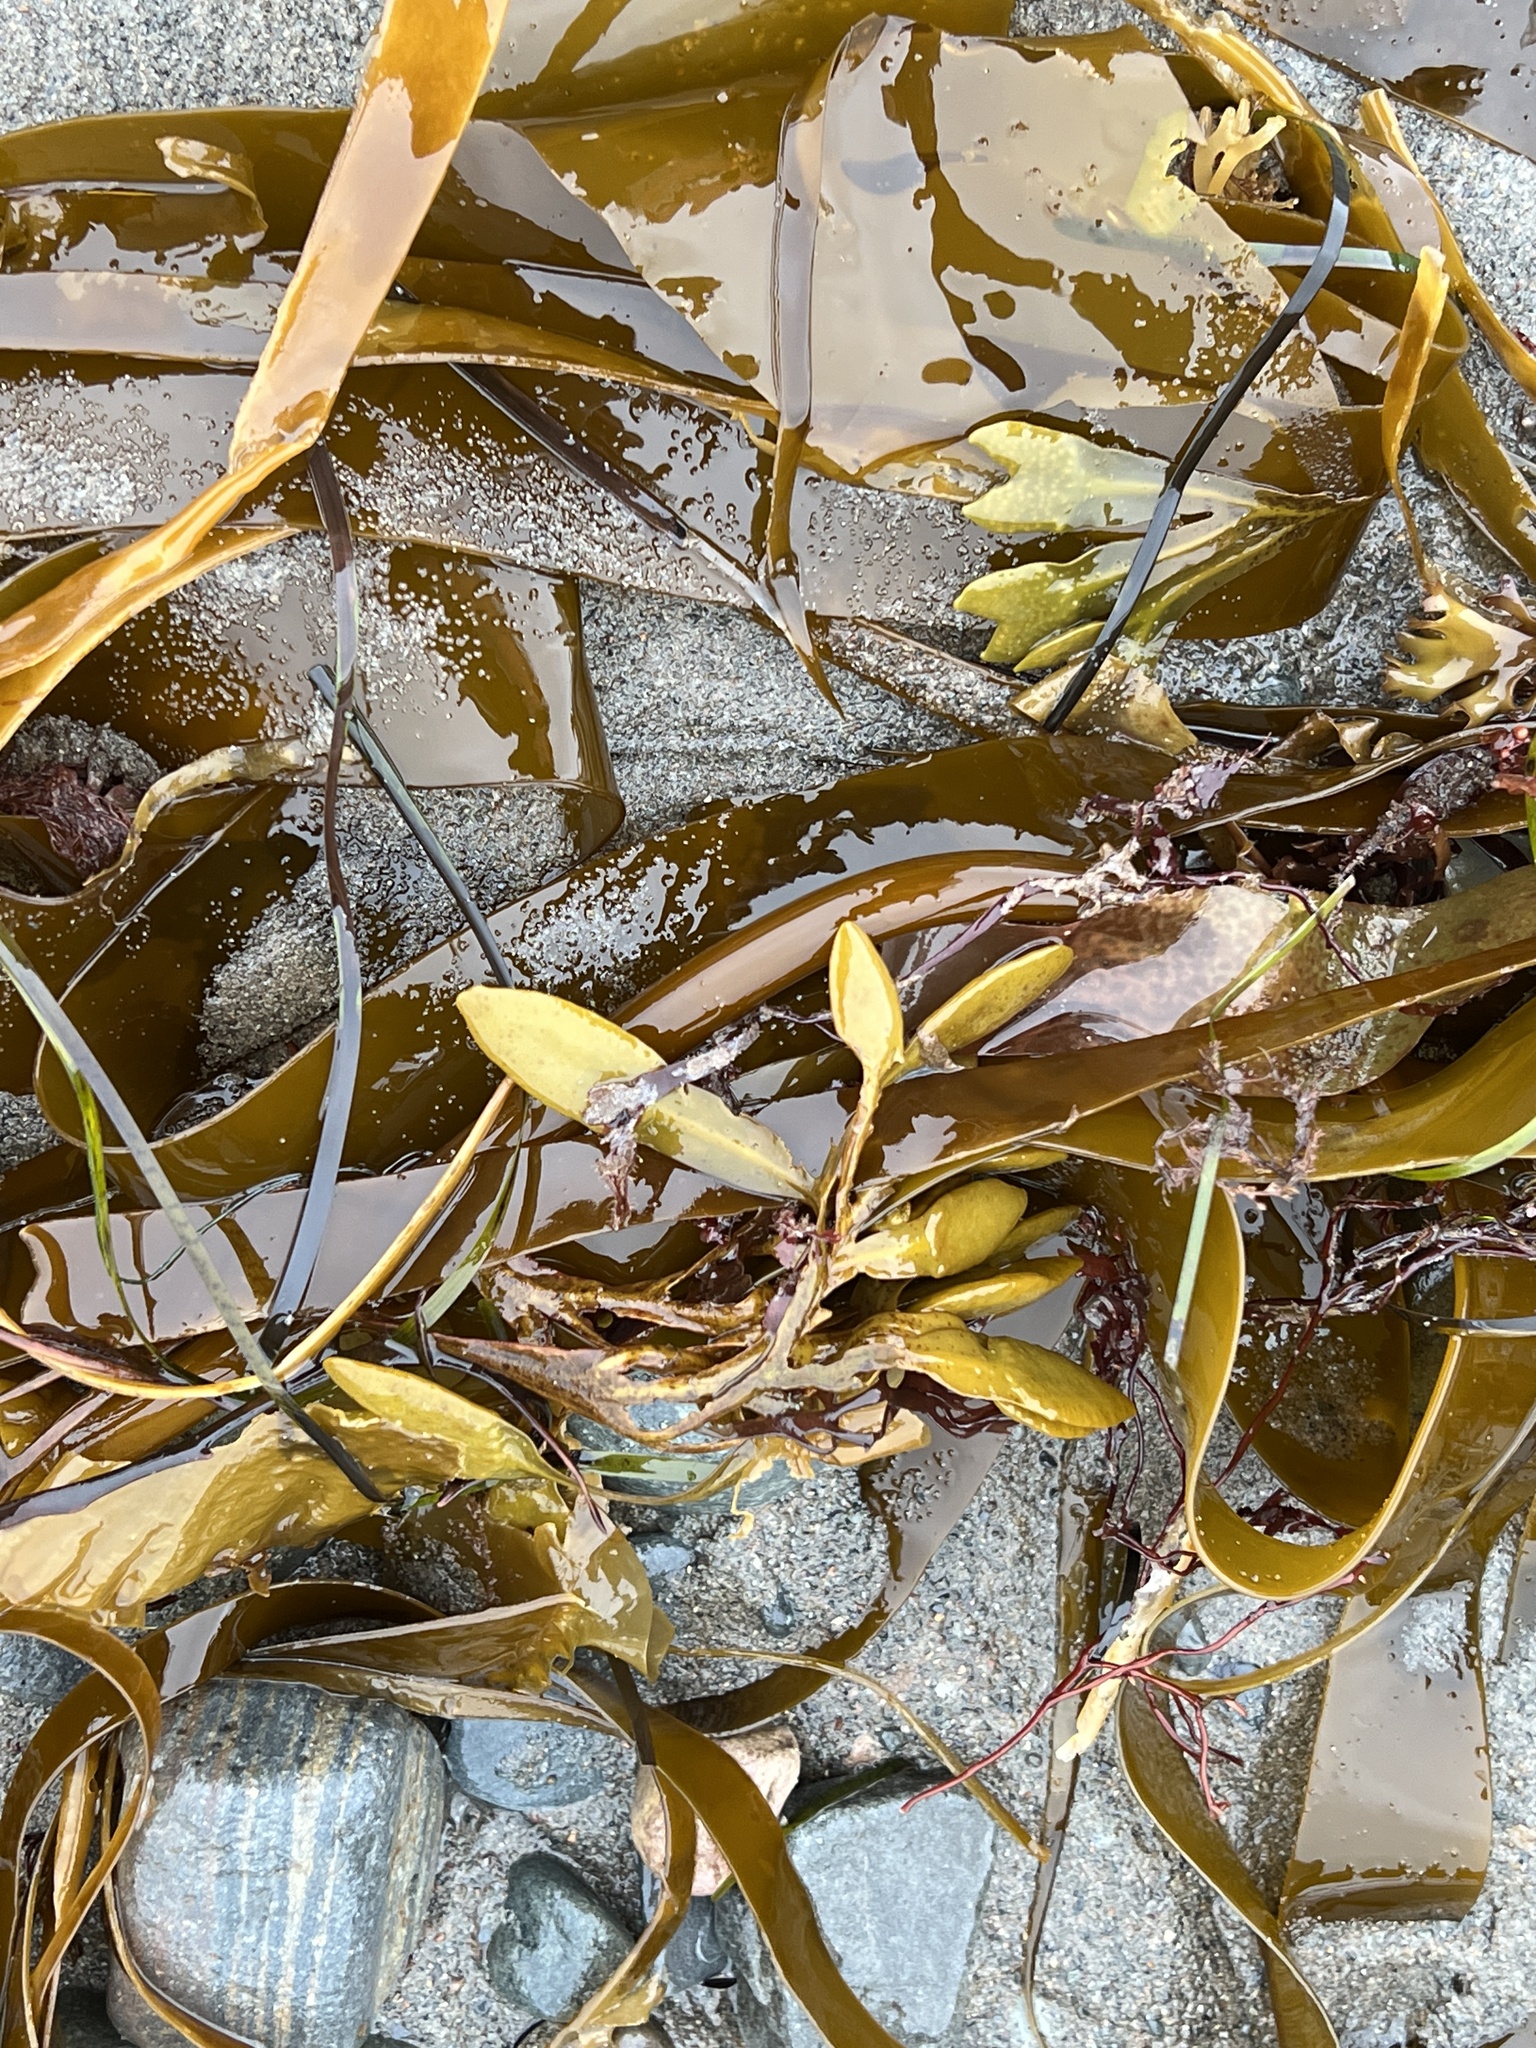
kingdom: Chromista
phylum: Ochrophyta
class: Phaeophyceae
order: Laminariales
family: Laminariaceae
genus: Laminaria
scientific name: Laminaria digitata
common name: Oarweed
